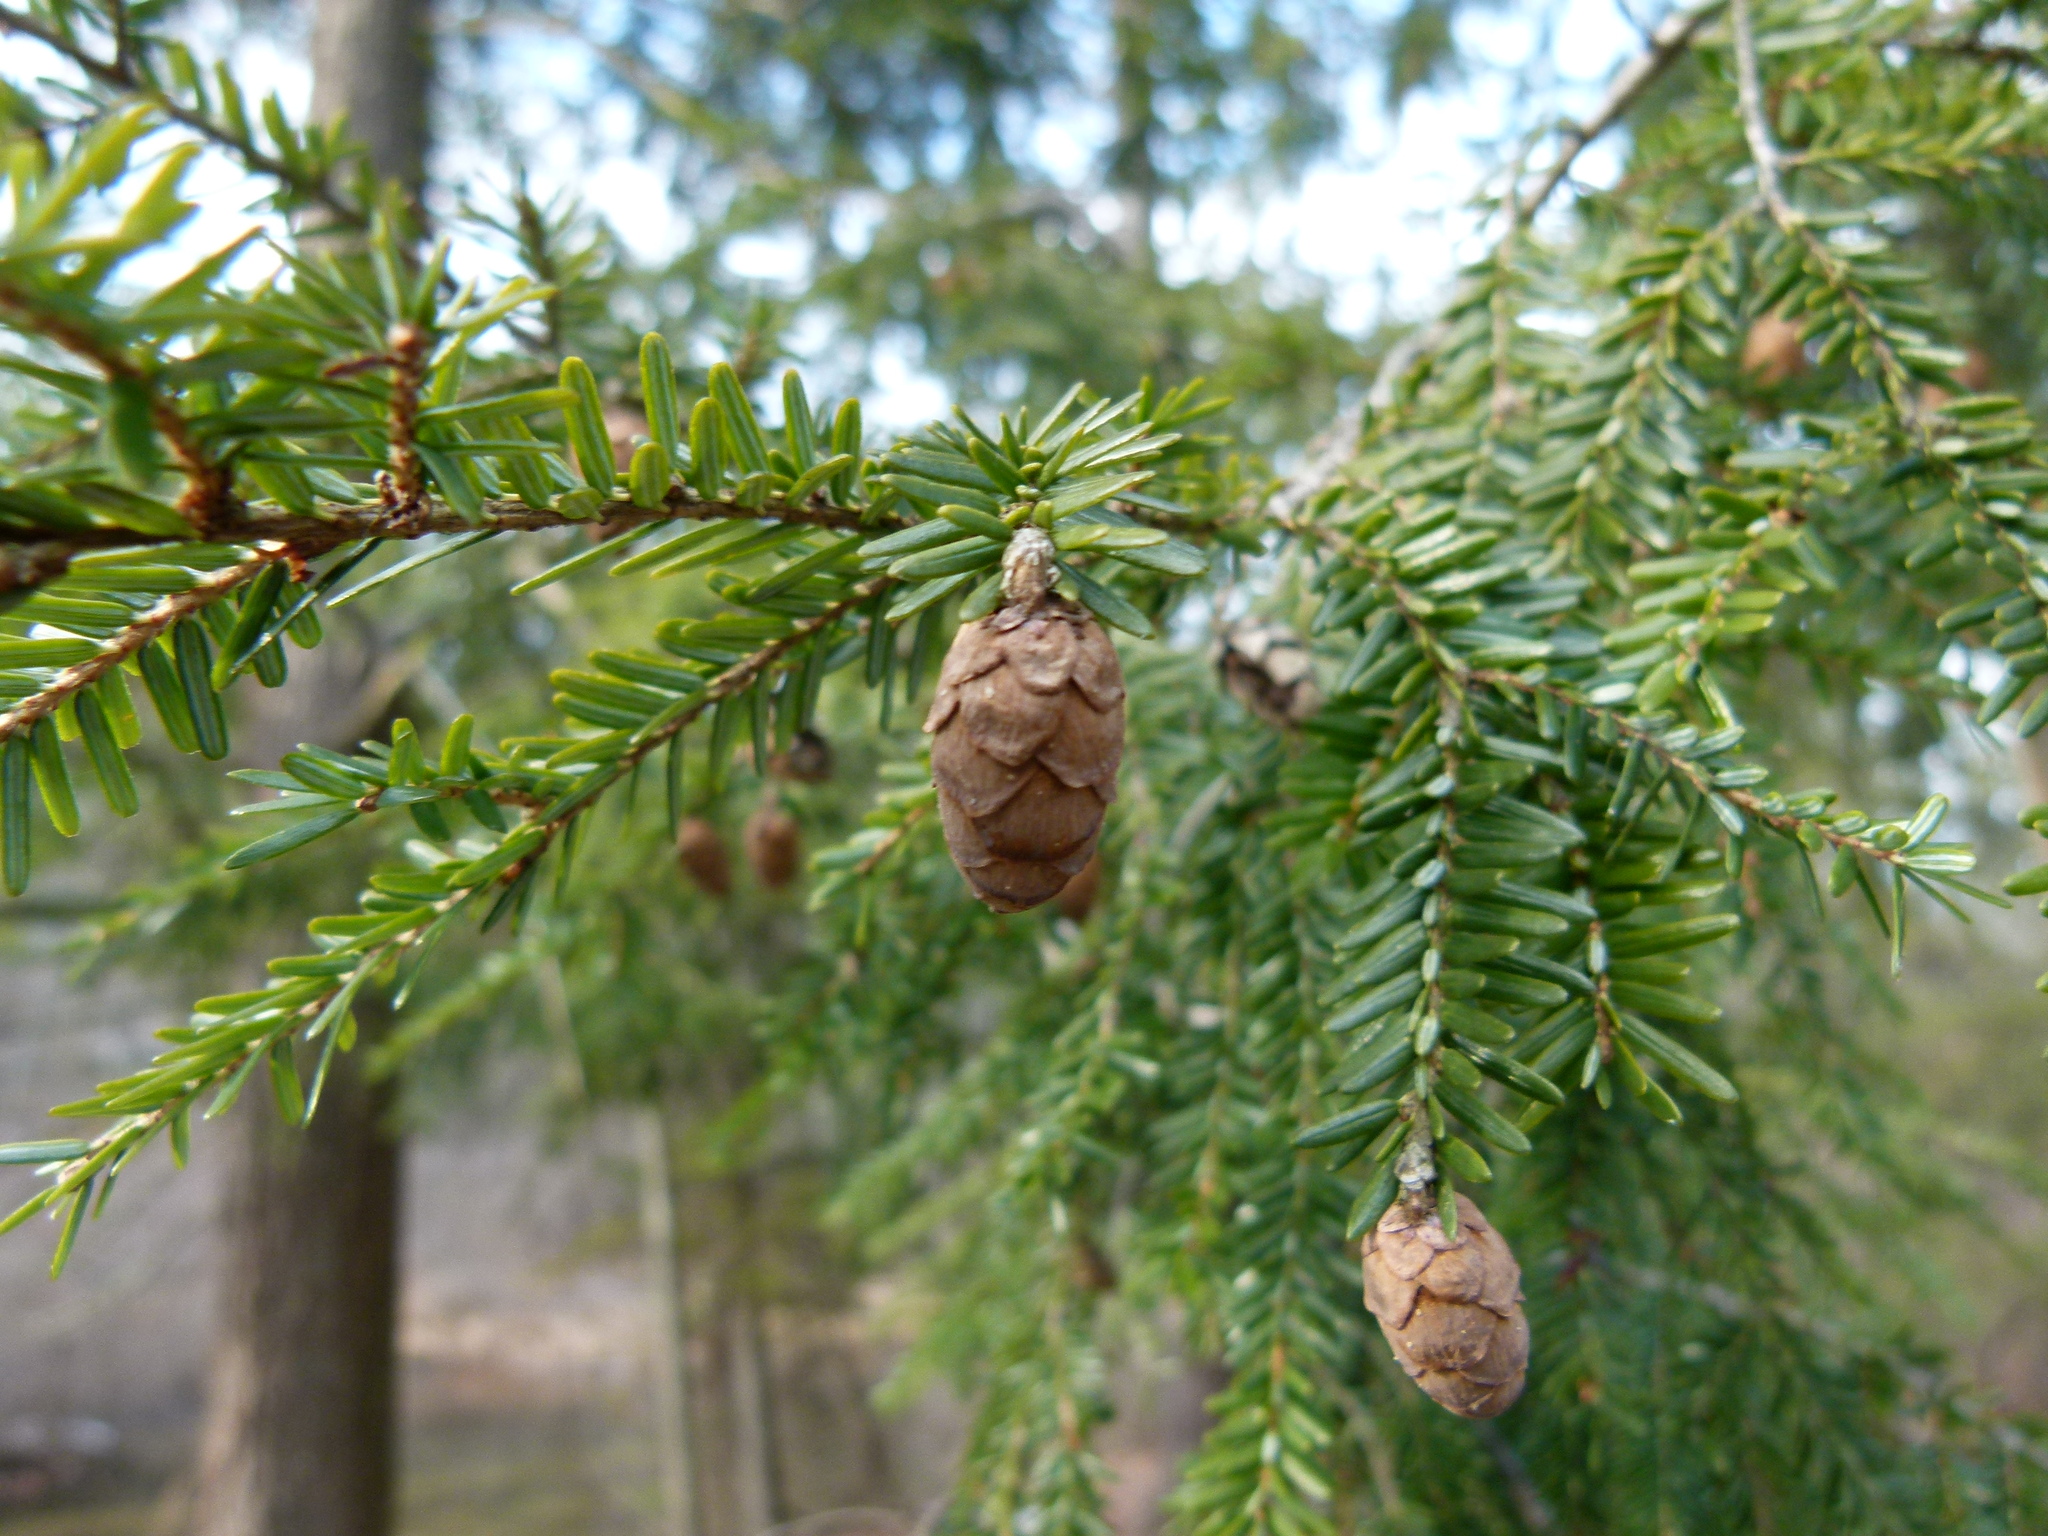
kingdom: Plantae
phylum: Tracheophyta
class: Pinopsida
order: Pinales
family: Pinaceae
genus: Tsuga
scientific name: Tsuga canadensis
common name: Eastern hemlock
